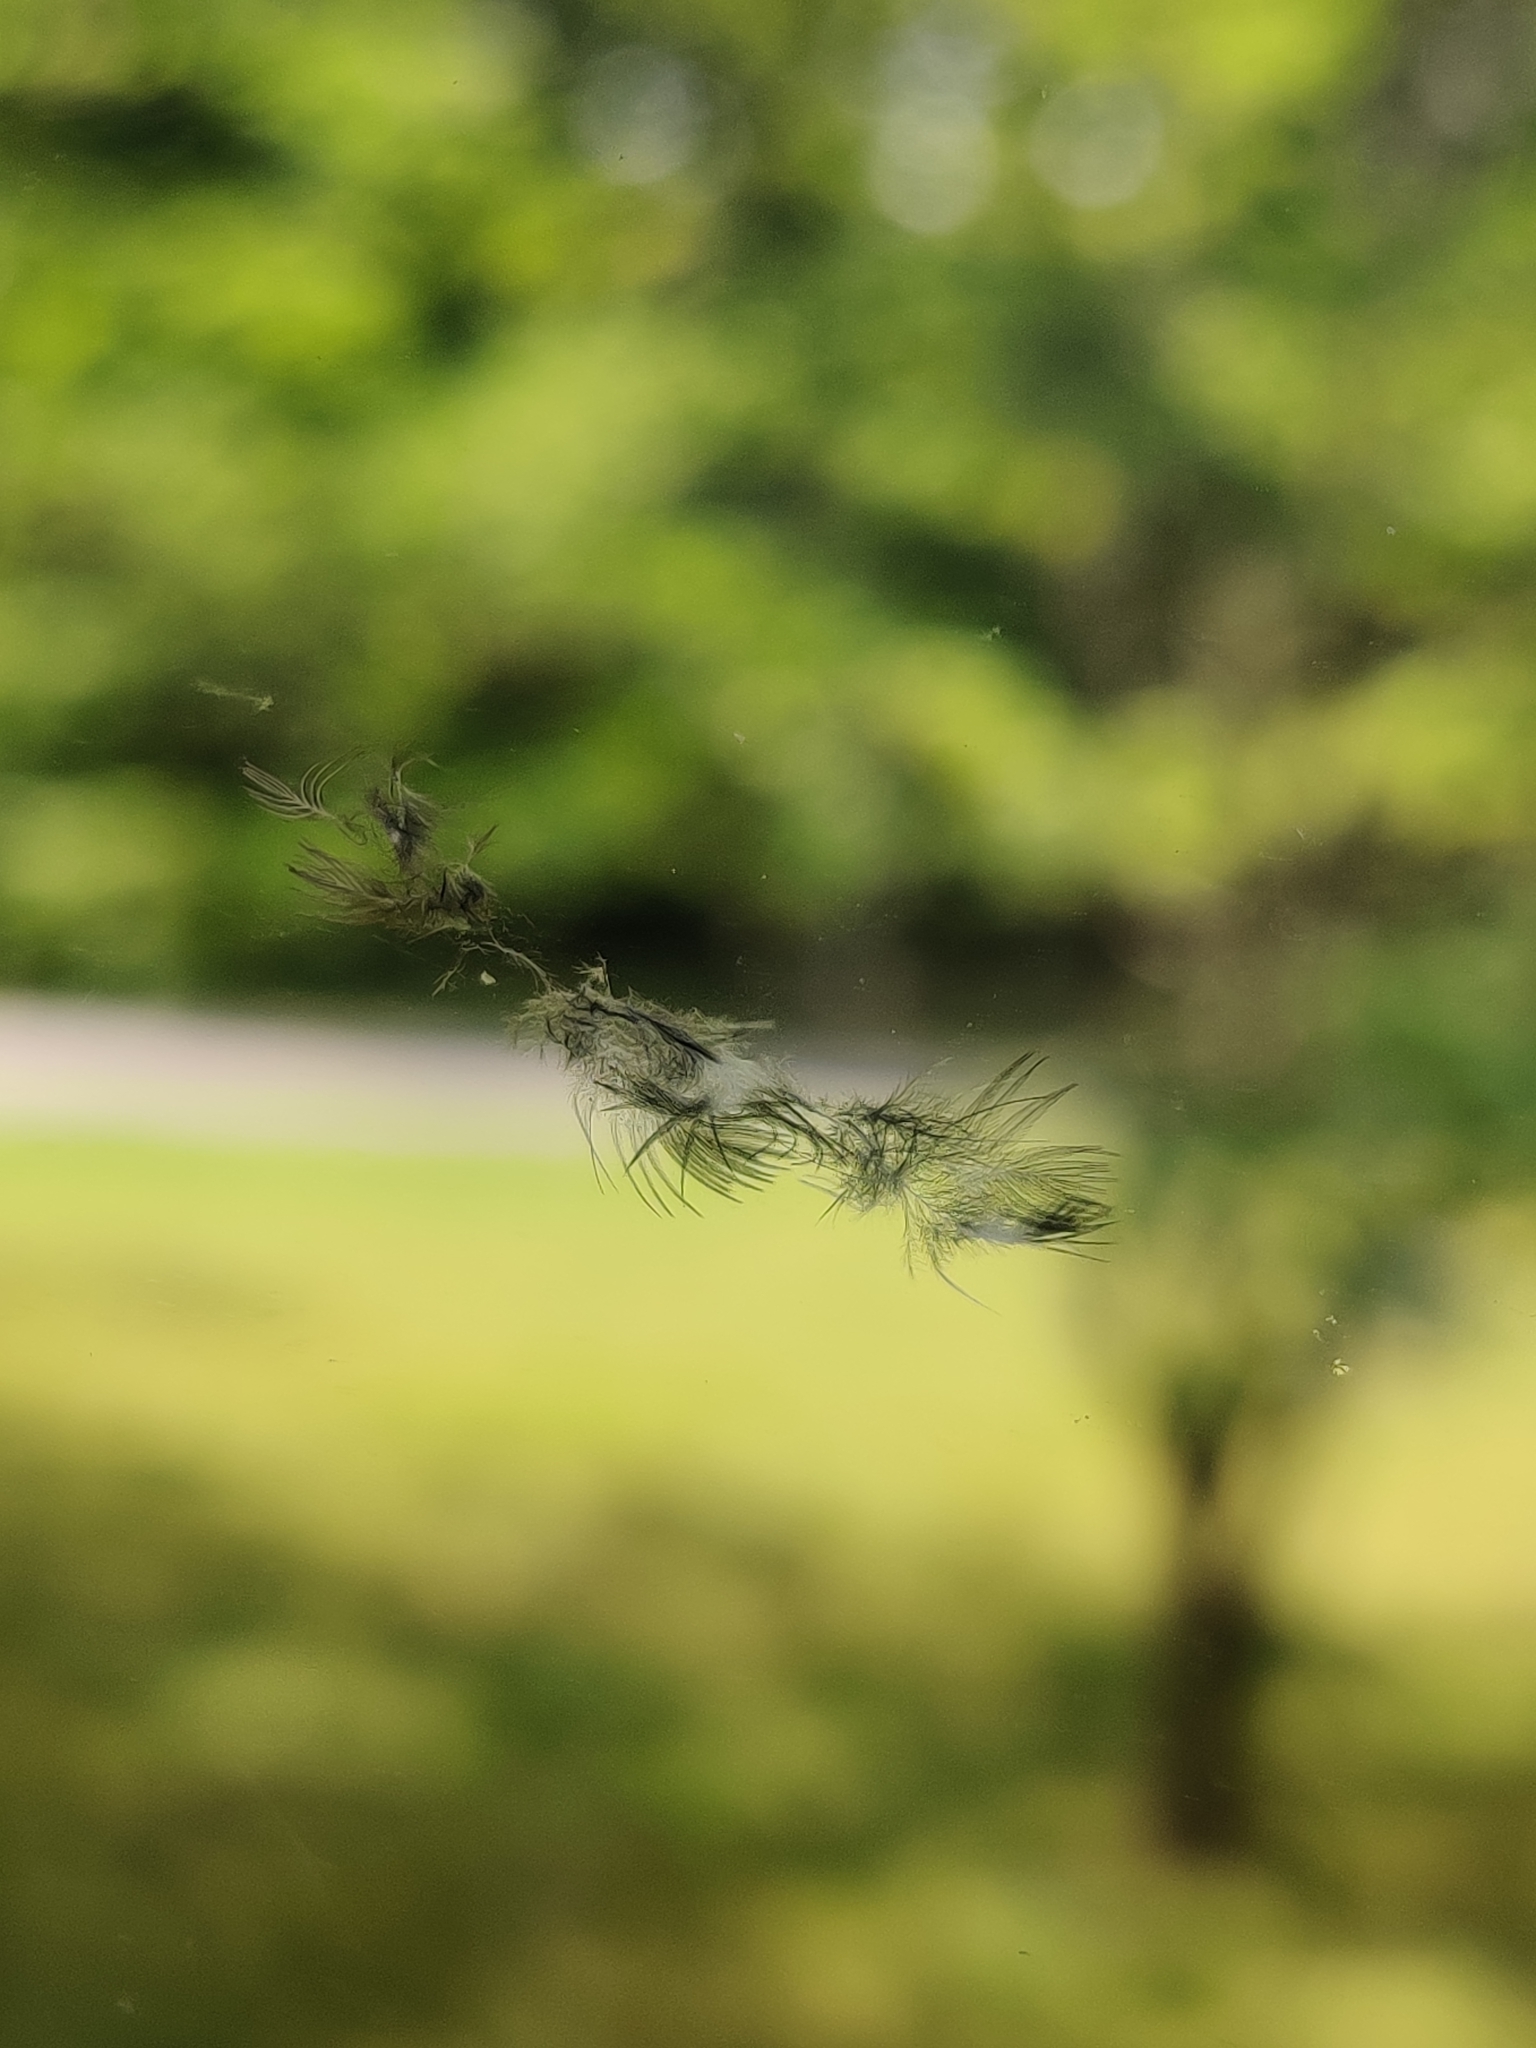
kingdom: Animalia
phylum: Chordata
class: Aves
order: Passeriformes
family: Parulidae
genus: Setophaga
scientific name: Setophaga caerulescens
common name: Black-throated blue warbler
